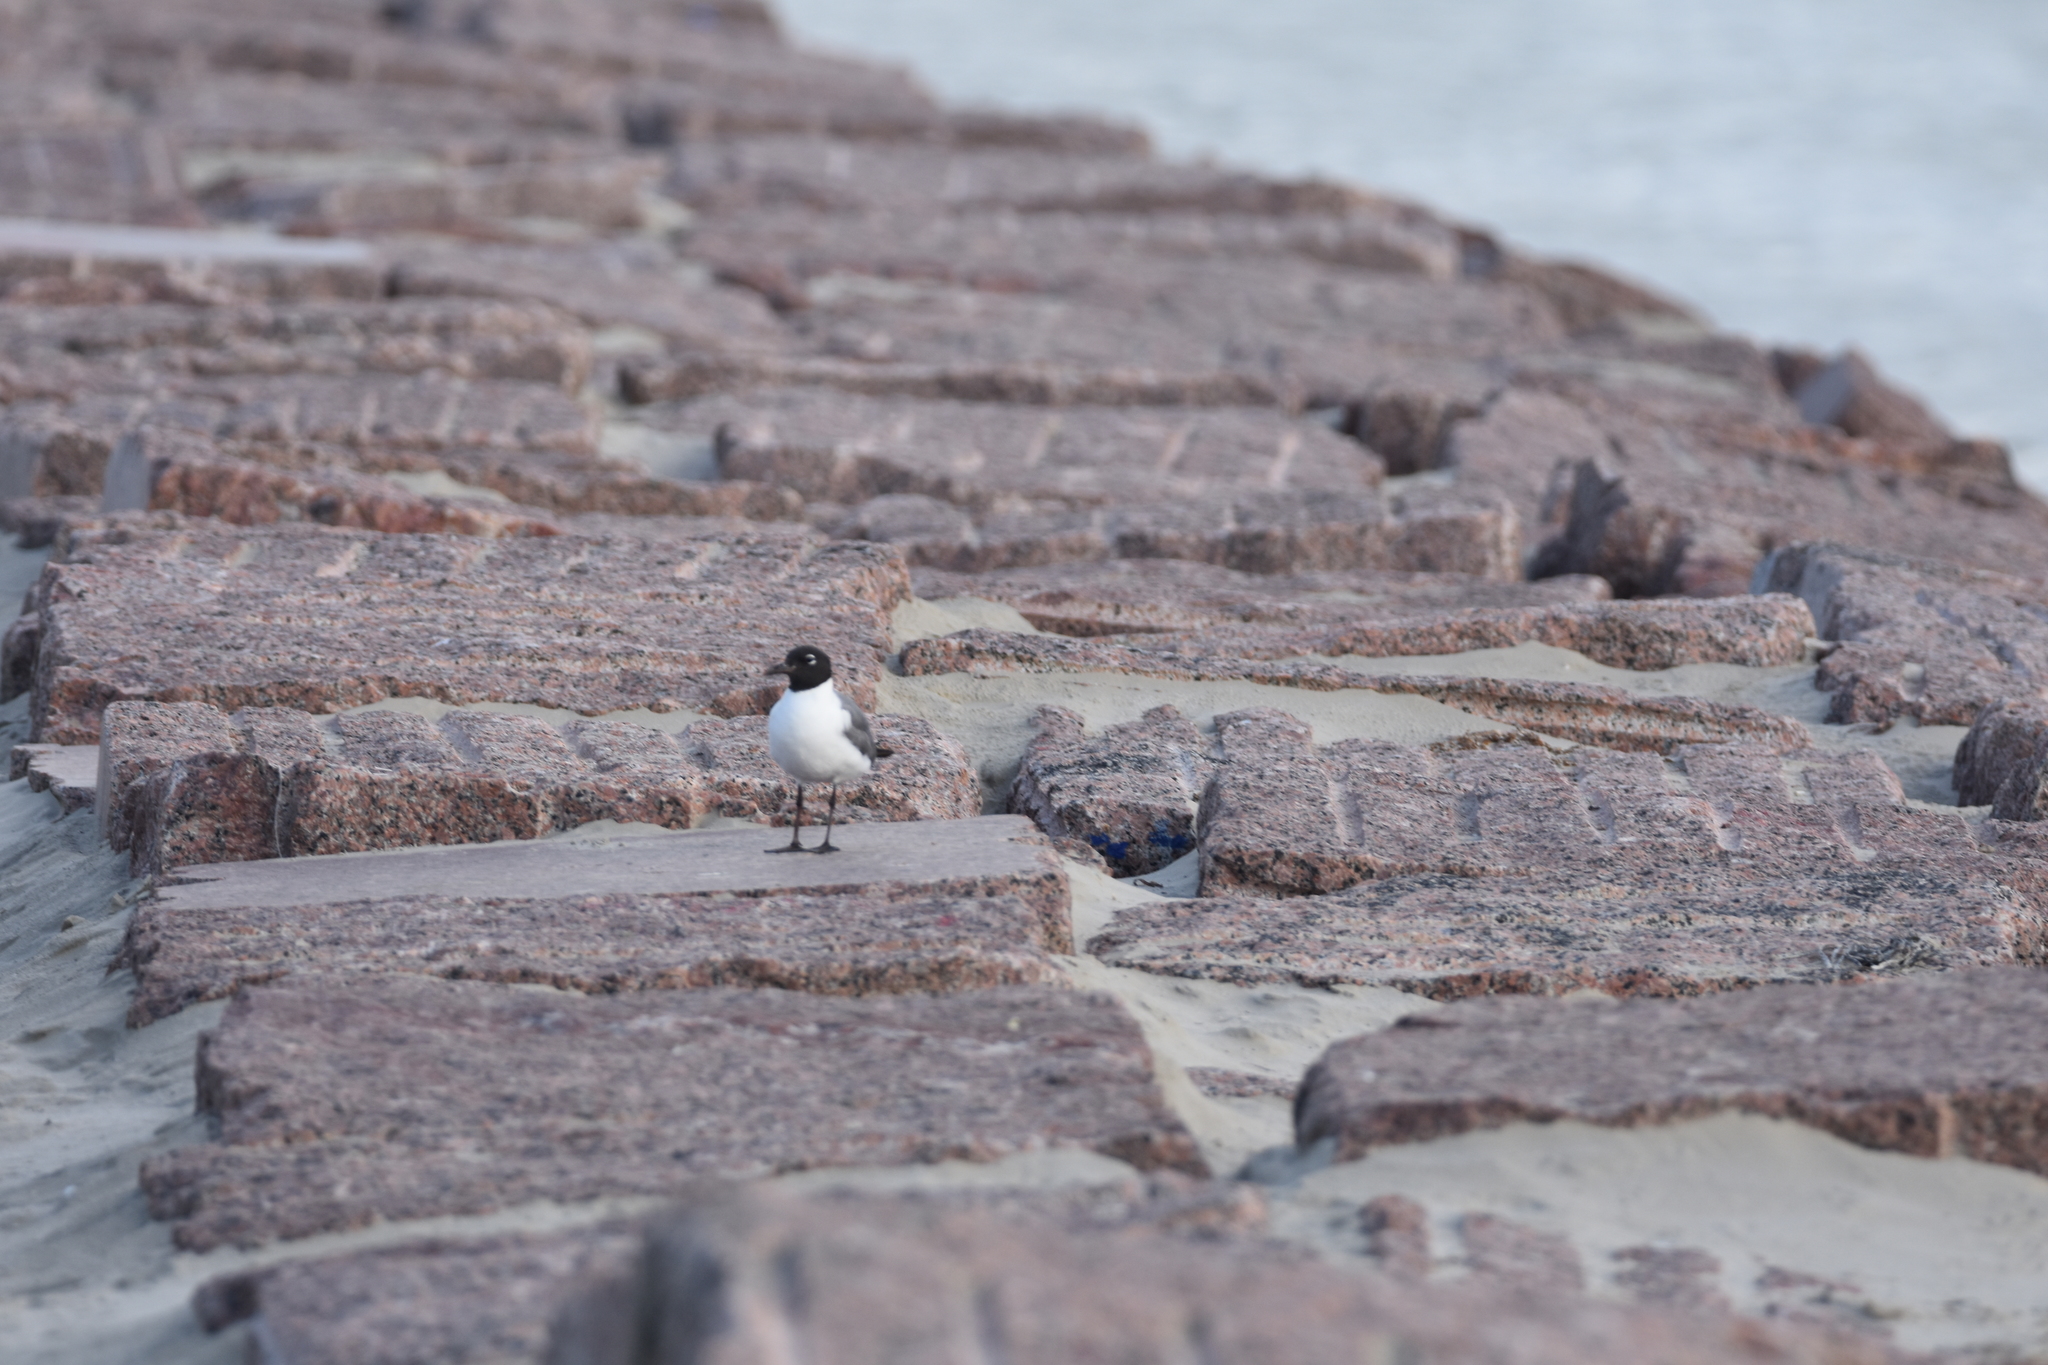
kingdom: Animalia
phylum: Chordata
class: Aves
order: Charadriiformes
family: Laridae
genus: Leucophaeus
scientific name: Leucophaeus atricilla
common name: Laughing gull
